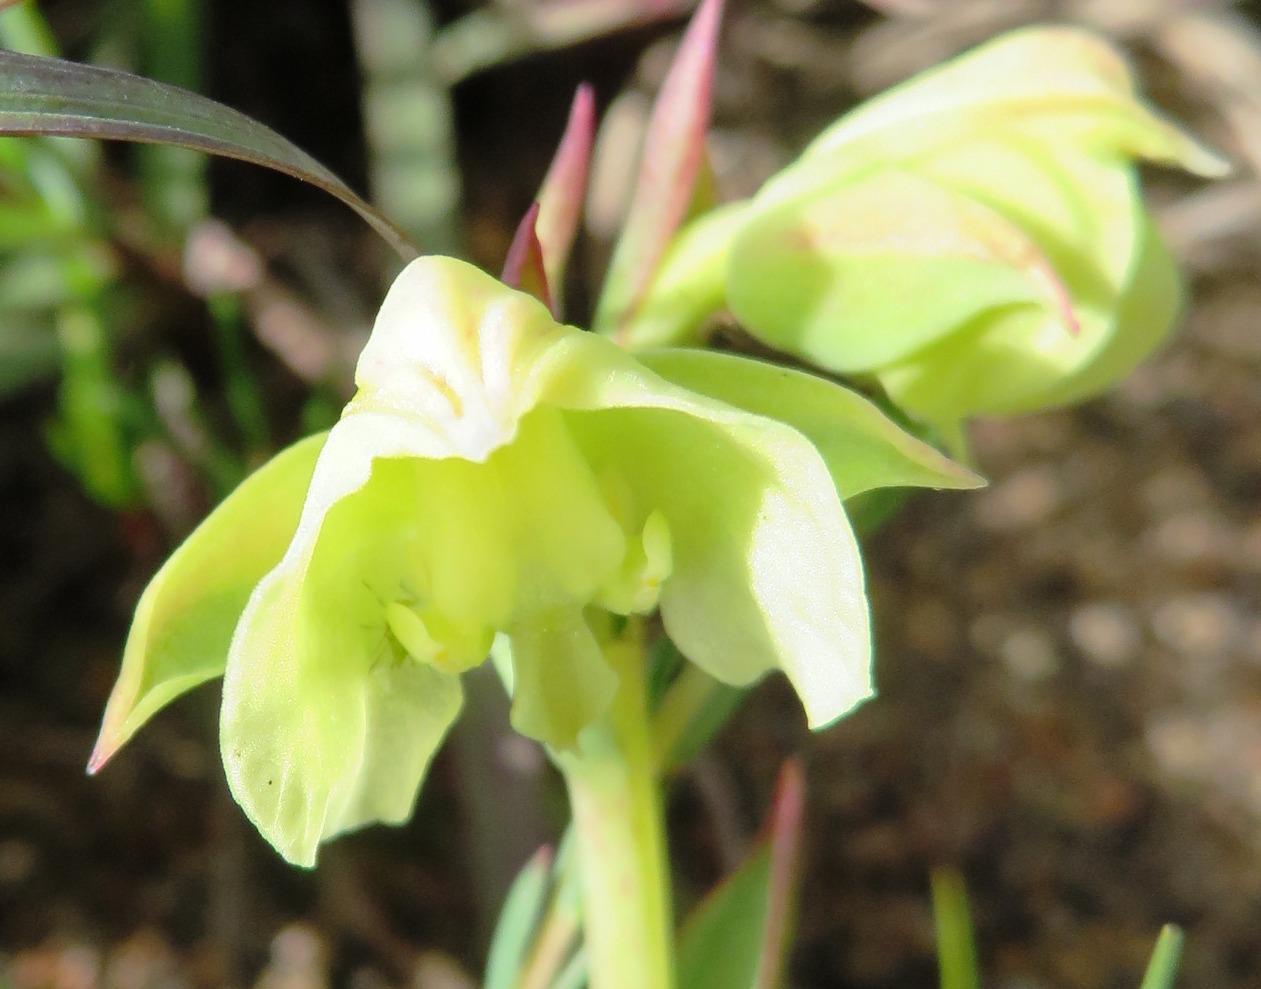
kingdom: Plantae
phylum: Tracheophyta
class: Liliopsida
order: Asparagales
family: Orchidaceae
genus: Pterygodium
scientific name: Pterygodium catholicum
